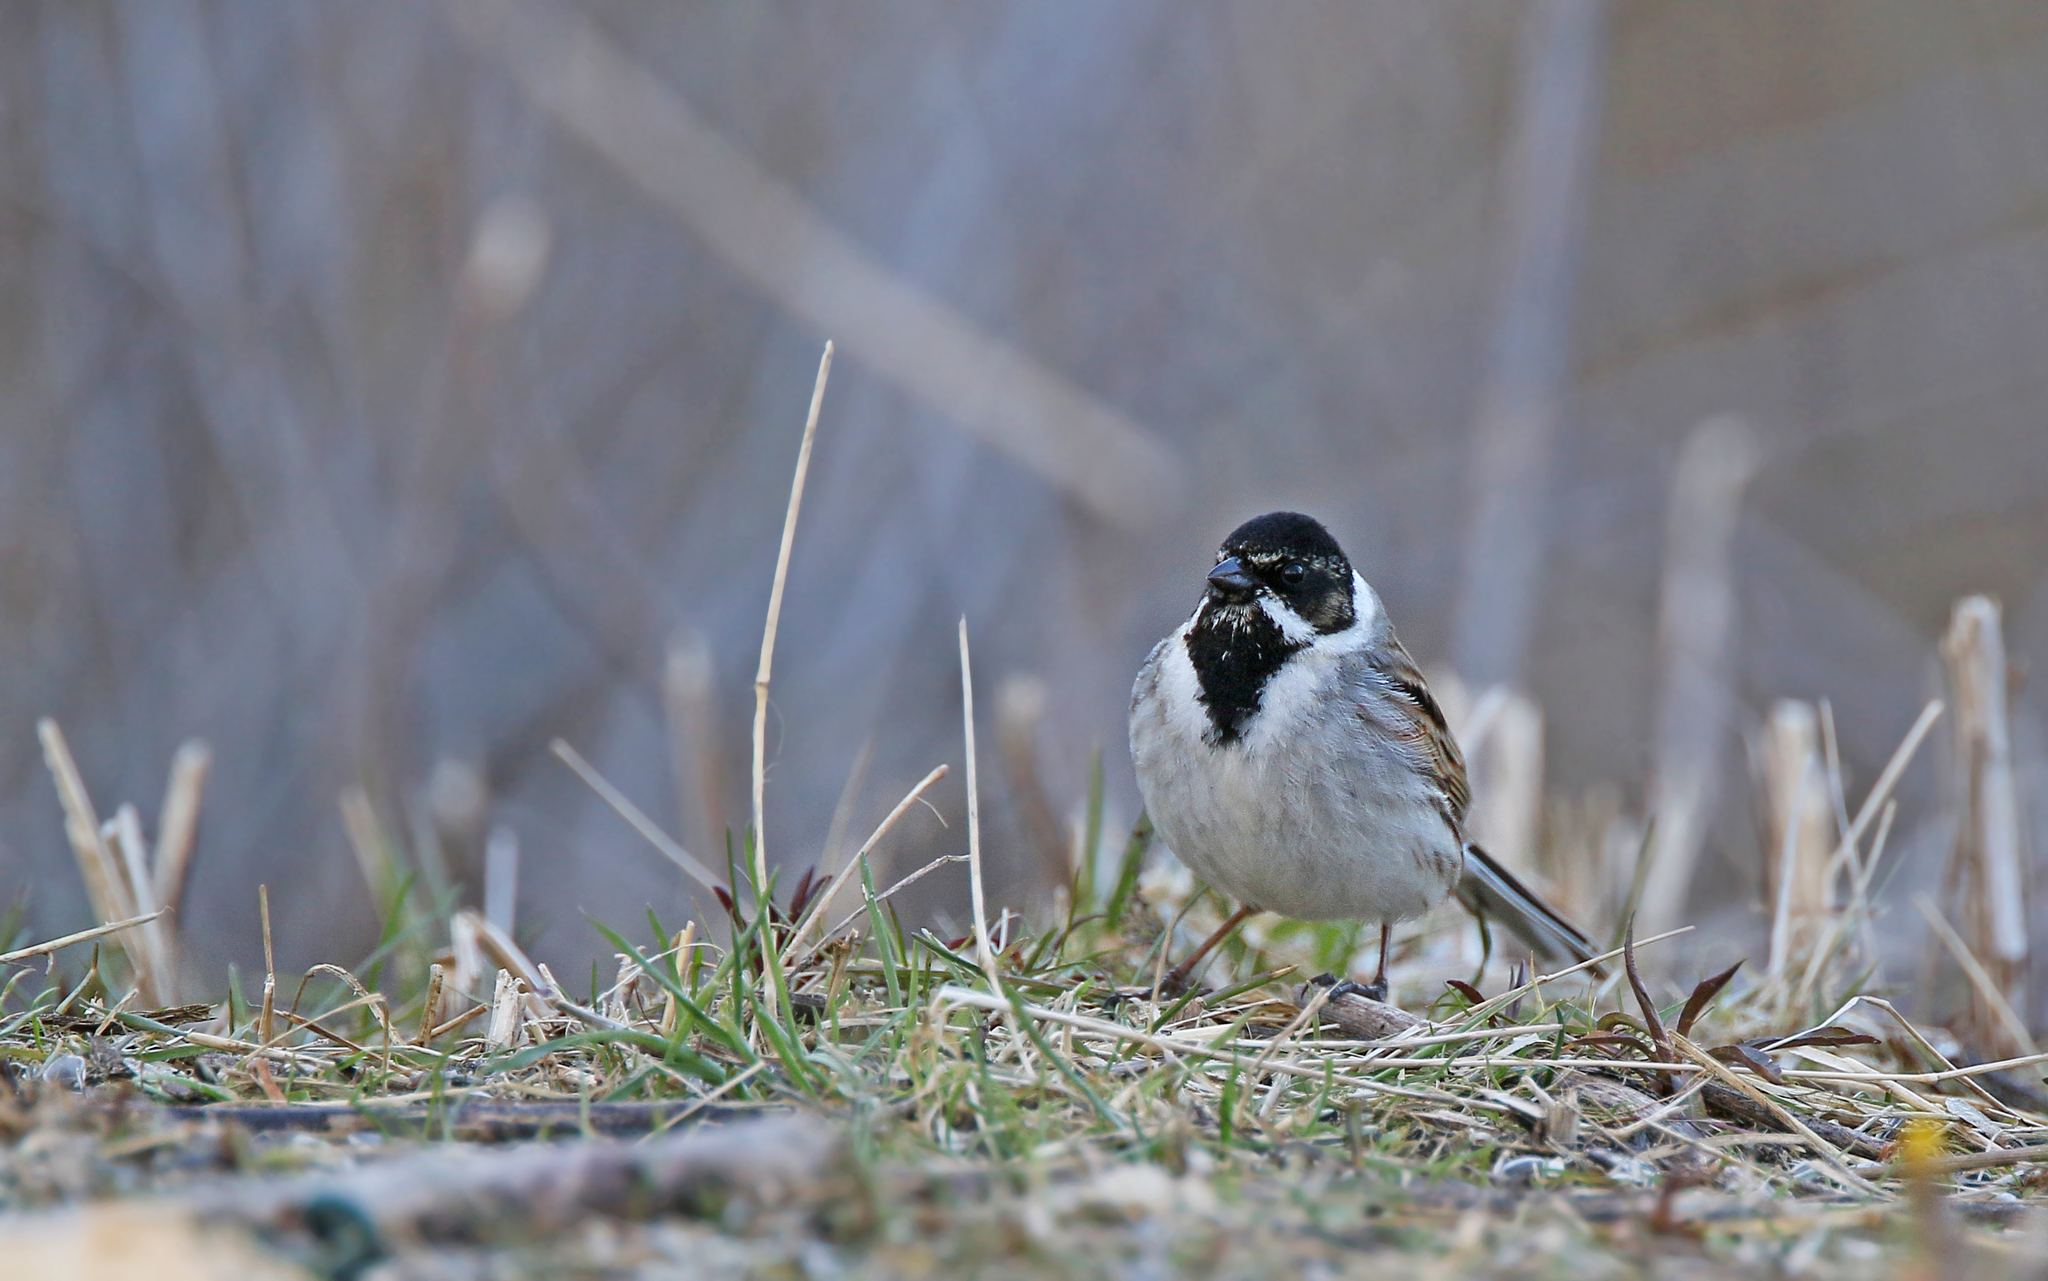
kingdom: Animalia
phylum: Chordata
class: Aves
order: Passeriformes
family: Emberizidae
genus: Emberiza
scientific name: Emberiza schoeniclus
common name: Reed bunting
